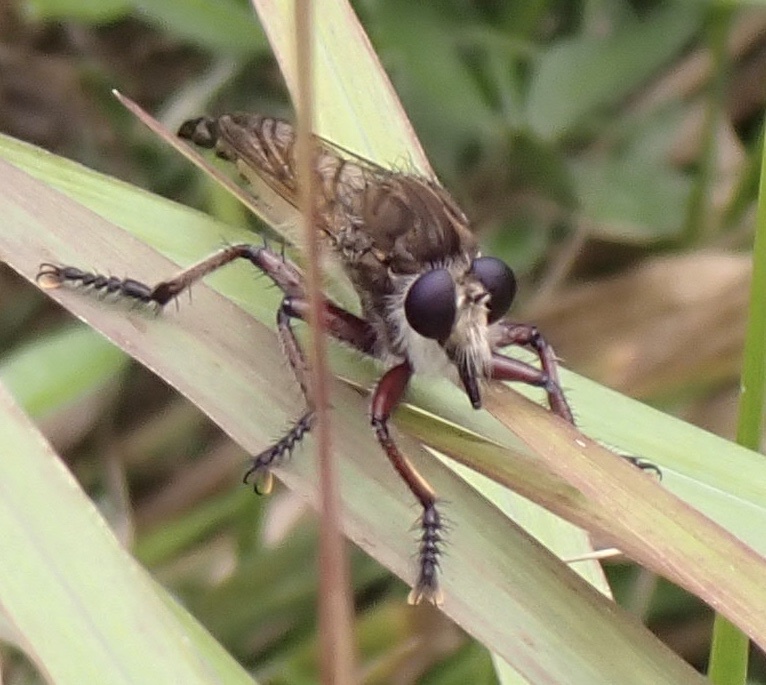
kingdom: Animalia
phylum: Arthropoda
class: Insecta
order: Diptera
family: Asilidae
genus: Promachus
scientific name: Promachus hinei
